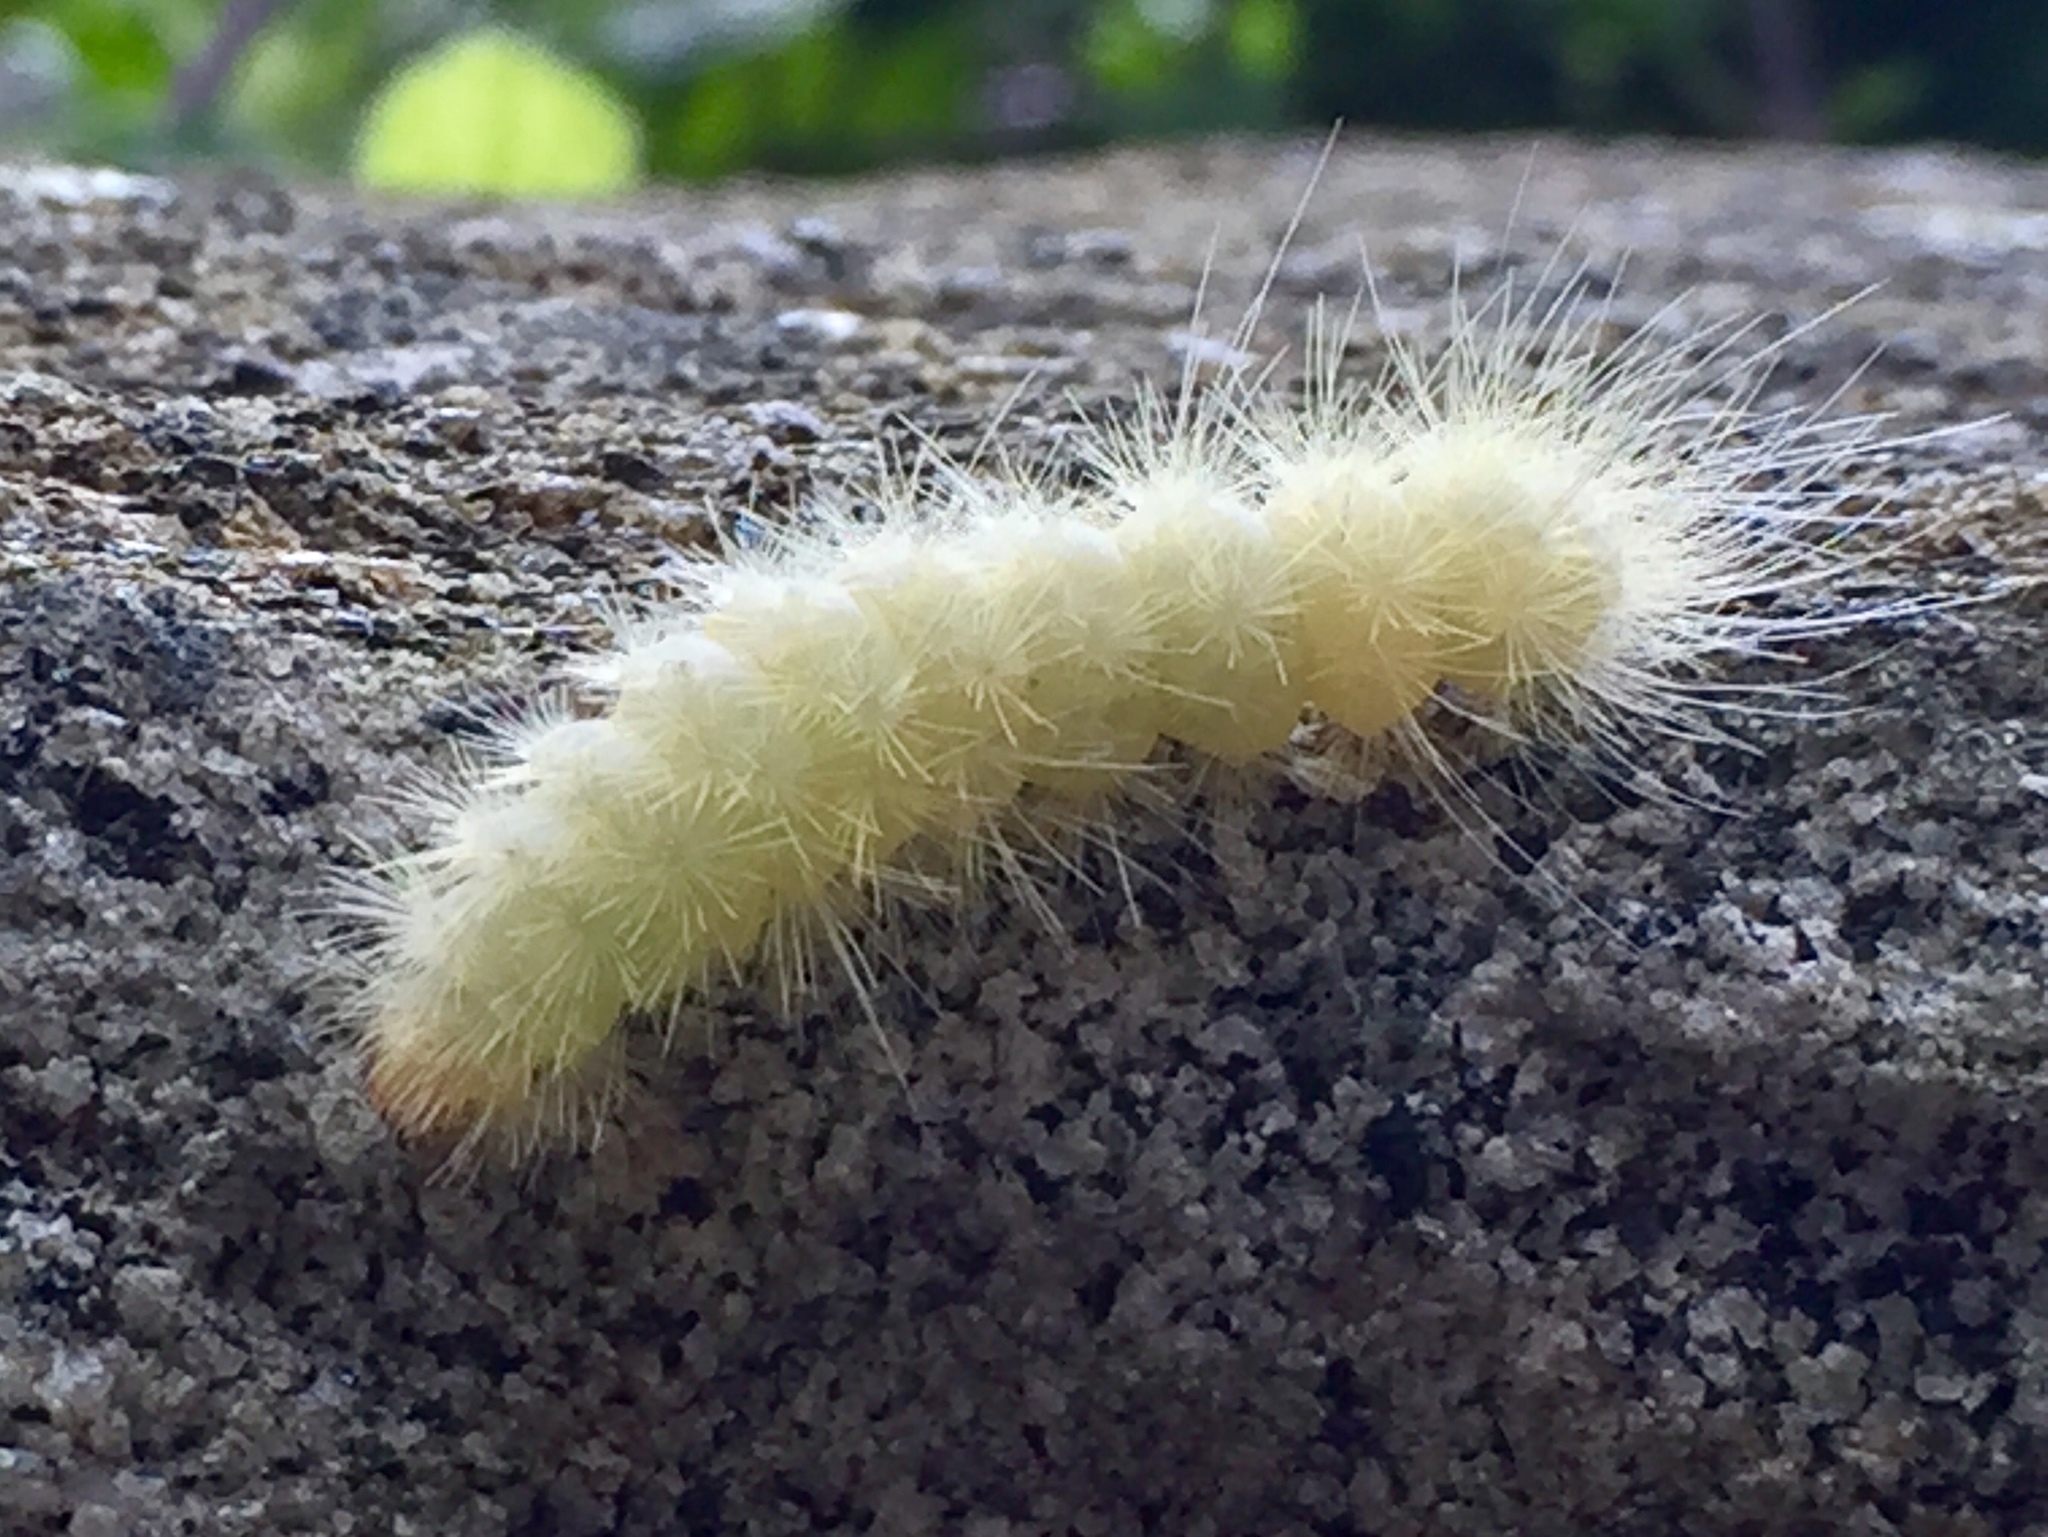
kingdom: Animalia
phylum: Arthropoda
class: Insecta
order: Lepidoptera
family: Erebidae
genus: Spilosoma
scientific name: Spilosoma virginica
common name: Virginia tiger moth
